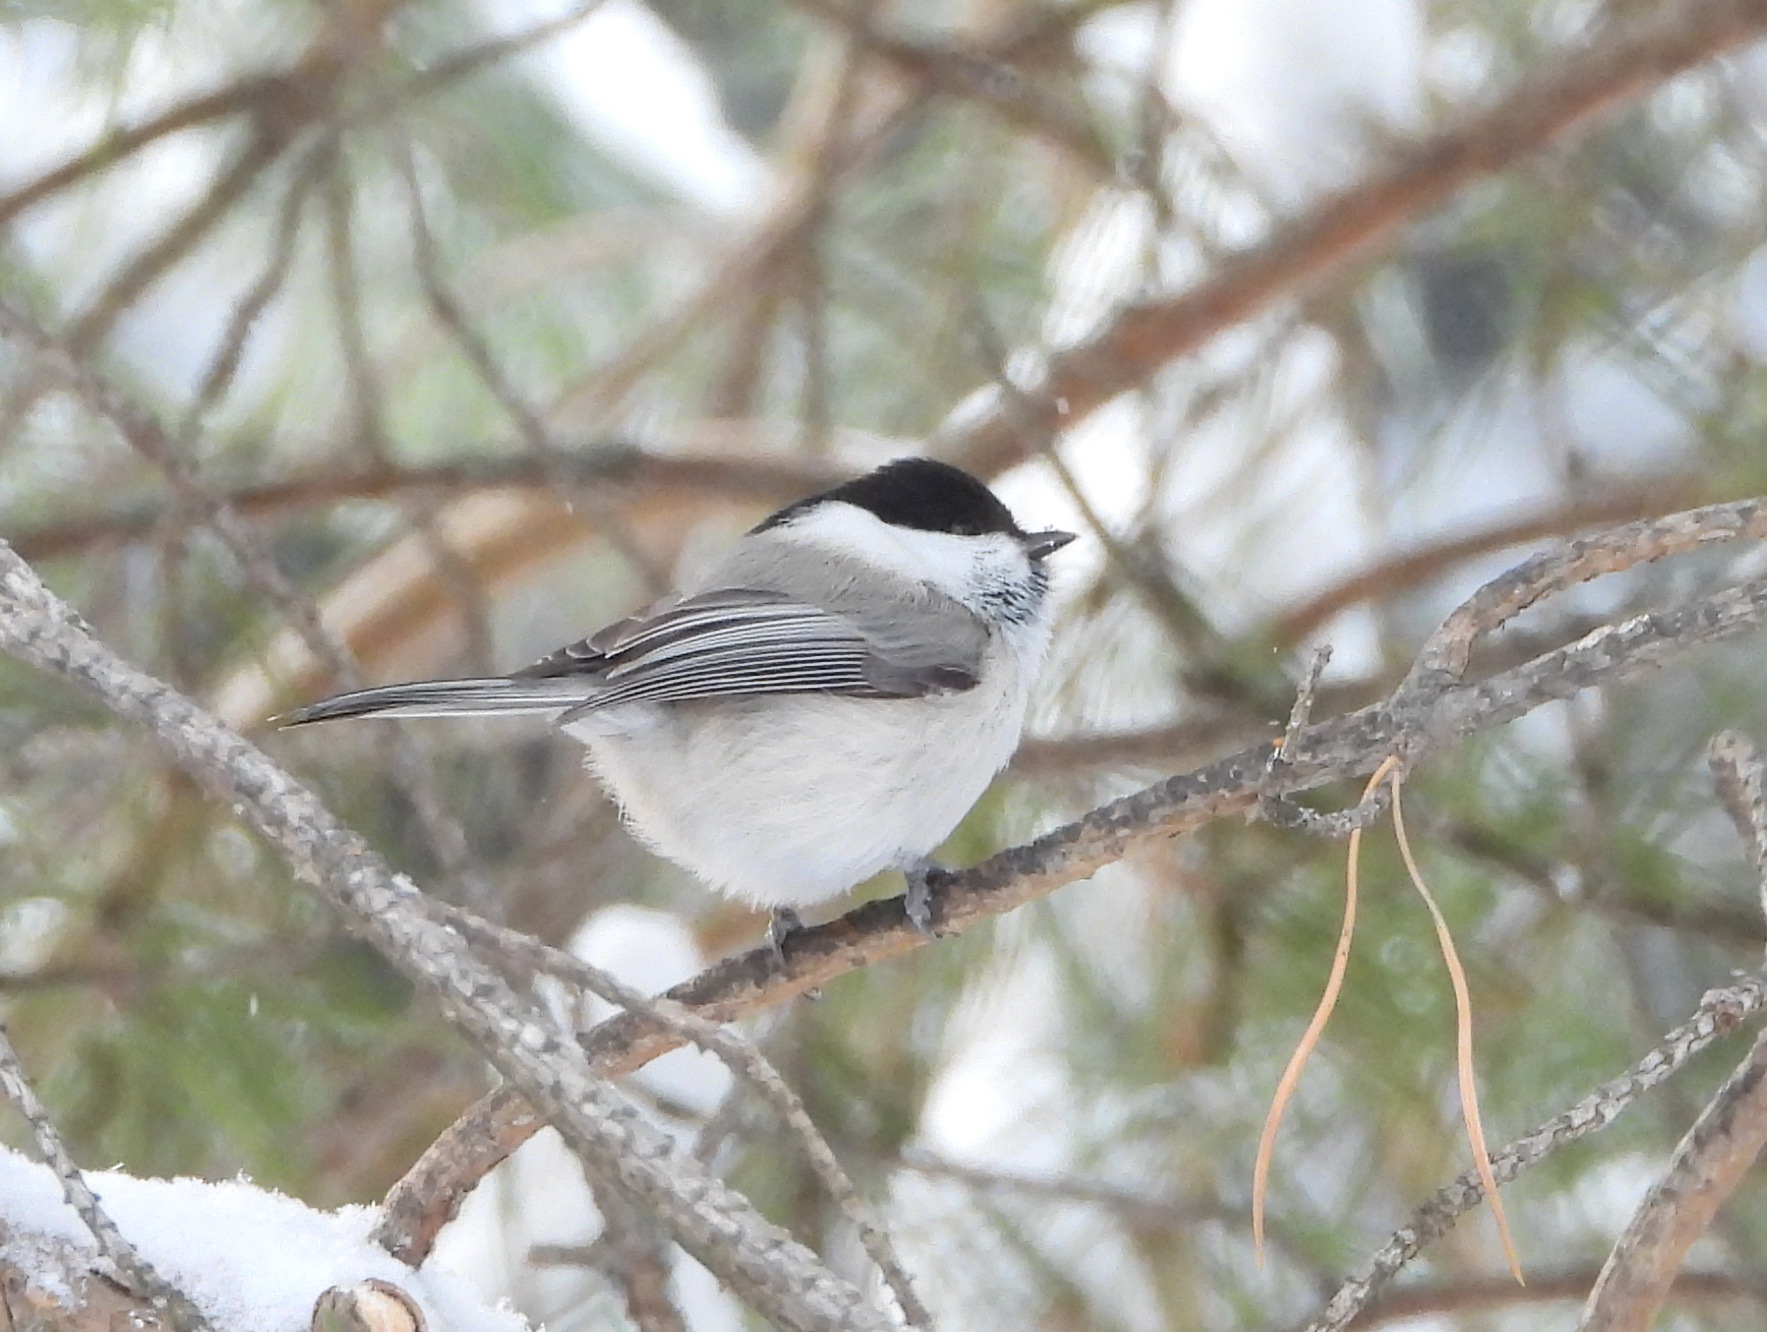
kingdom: Animalia
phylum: Chordata
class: Aves
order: Passeriformes
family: Paridae
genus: Poecile
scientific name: Poecile montanus
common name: Willow tit
